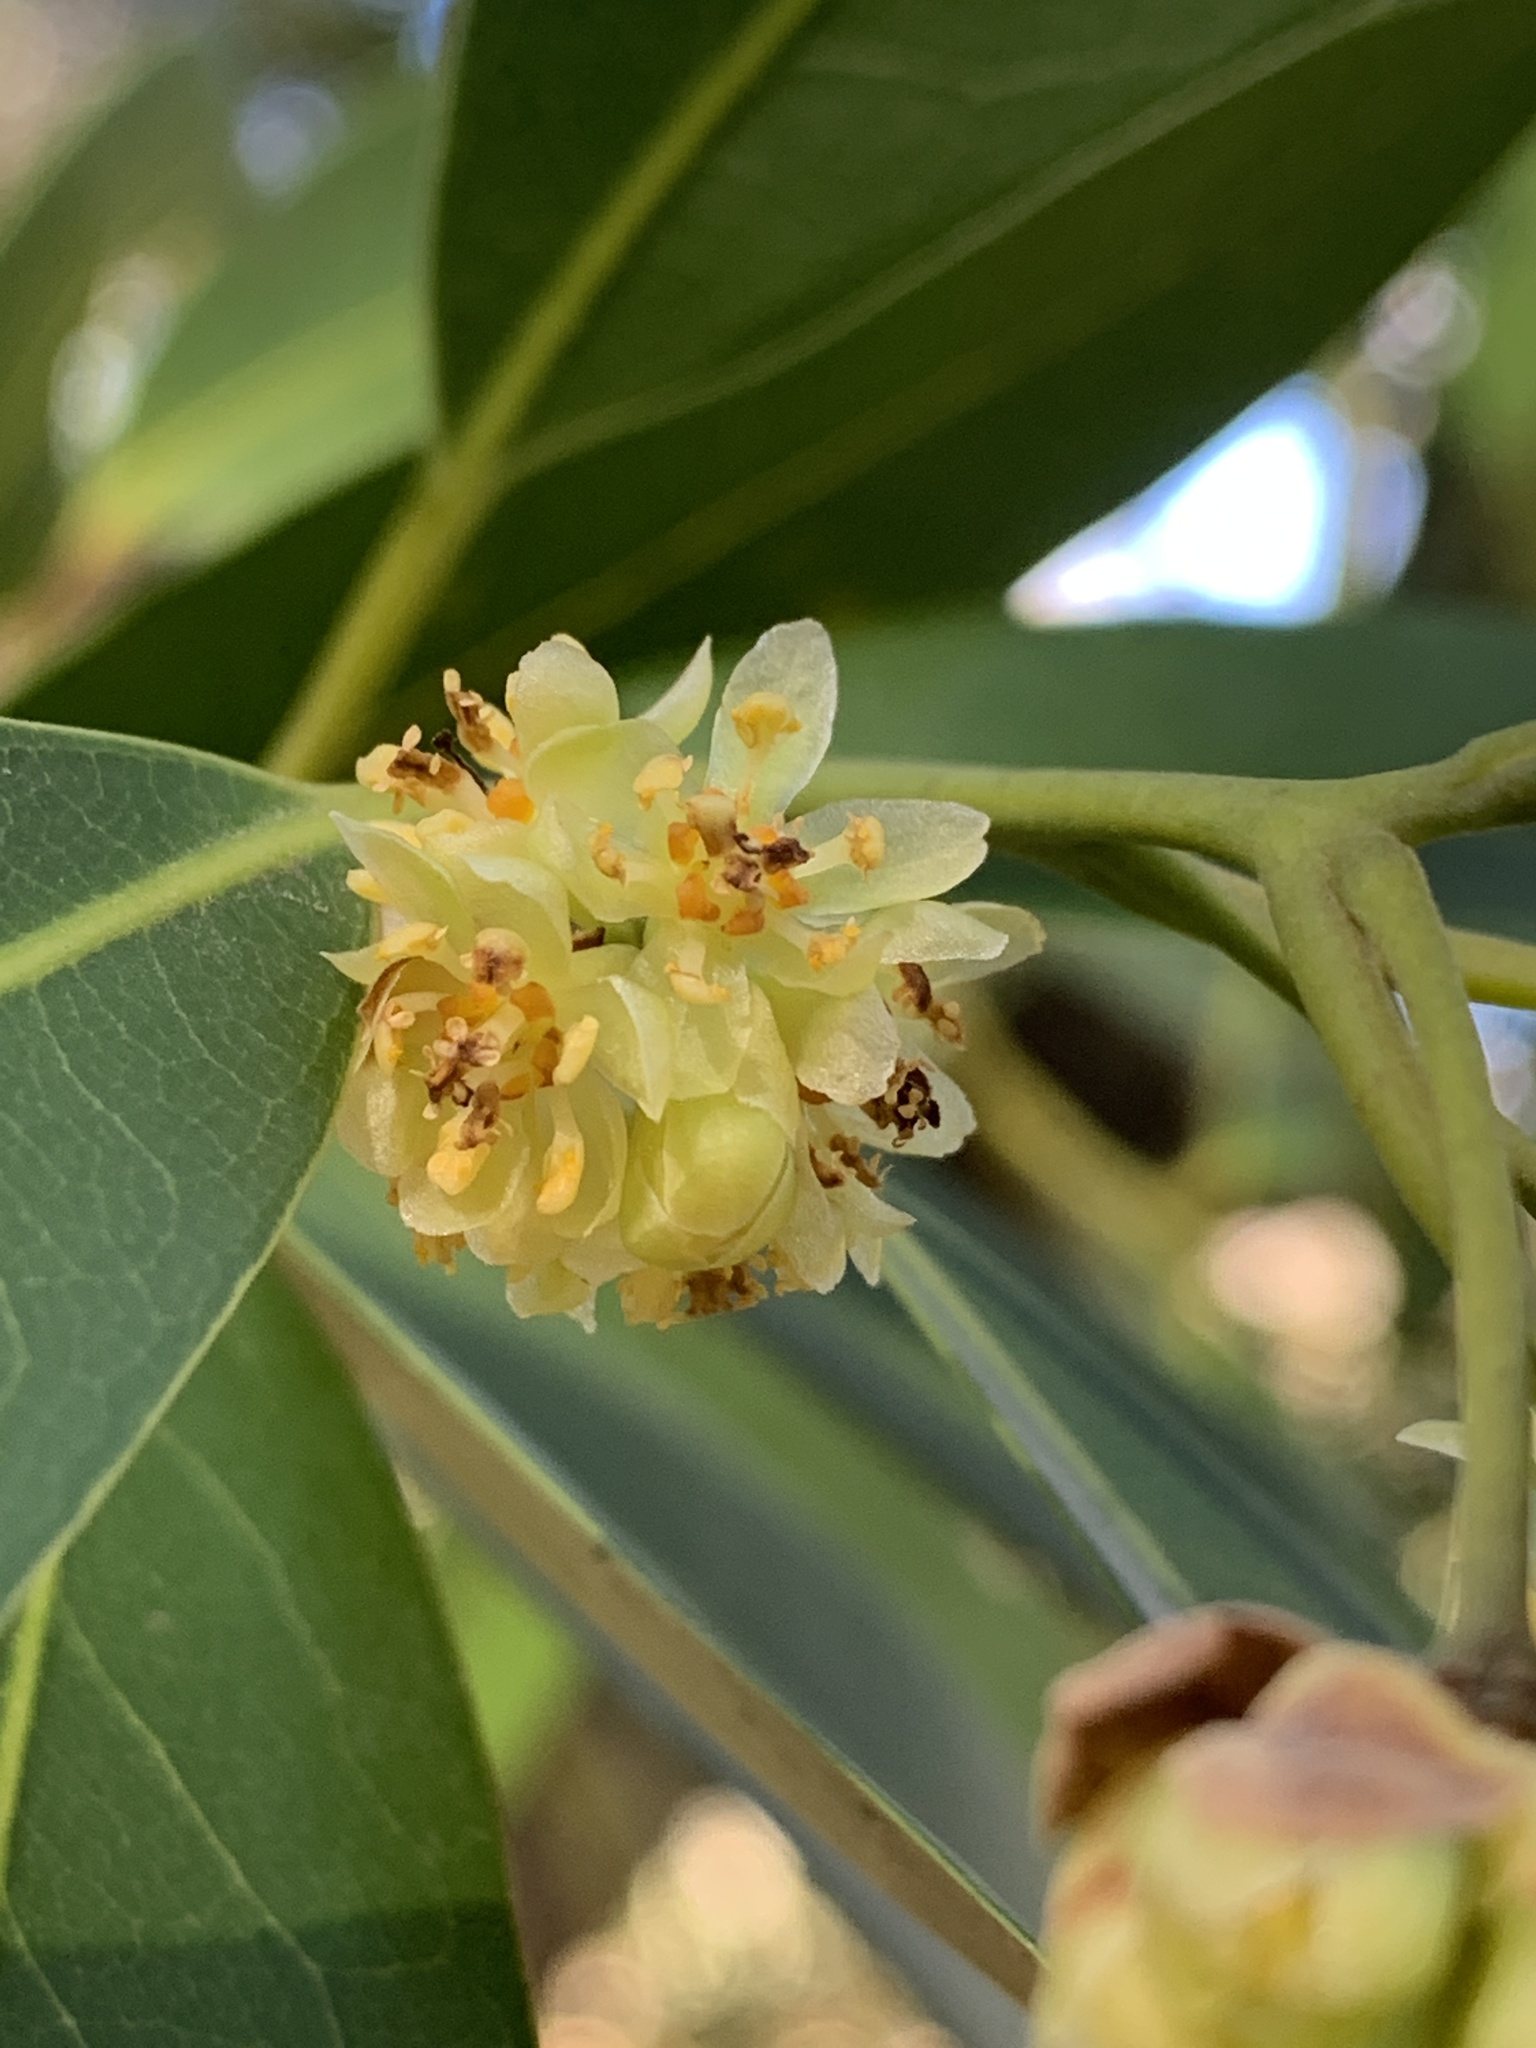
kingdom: Plantae
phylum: Tracheophyta
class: Magnoliopsida
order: Laurales
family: Lauraceae
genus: Umbellularia
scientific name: Umbellularia californica
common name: California bay
